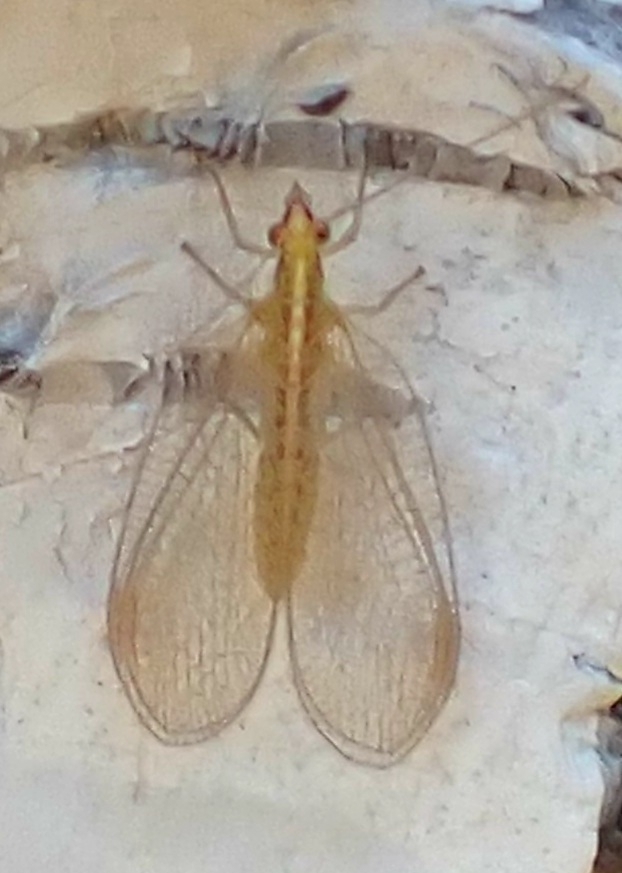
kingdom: Animalia
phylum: Arthropoda
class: Insecta
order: Neuroptera
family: Chrysopidae
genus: Chrysoperla
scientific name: Chrysoperla
